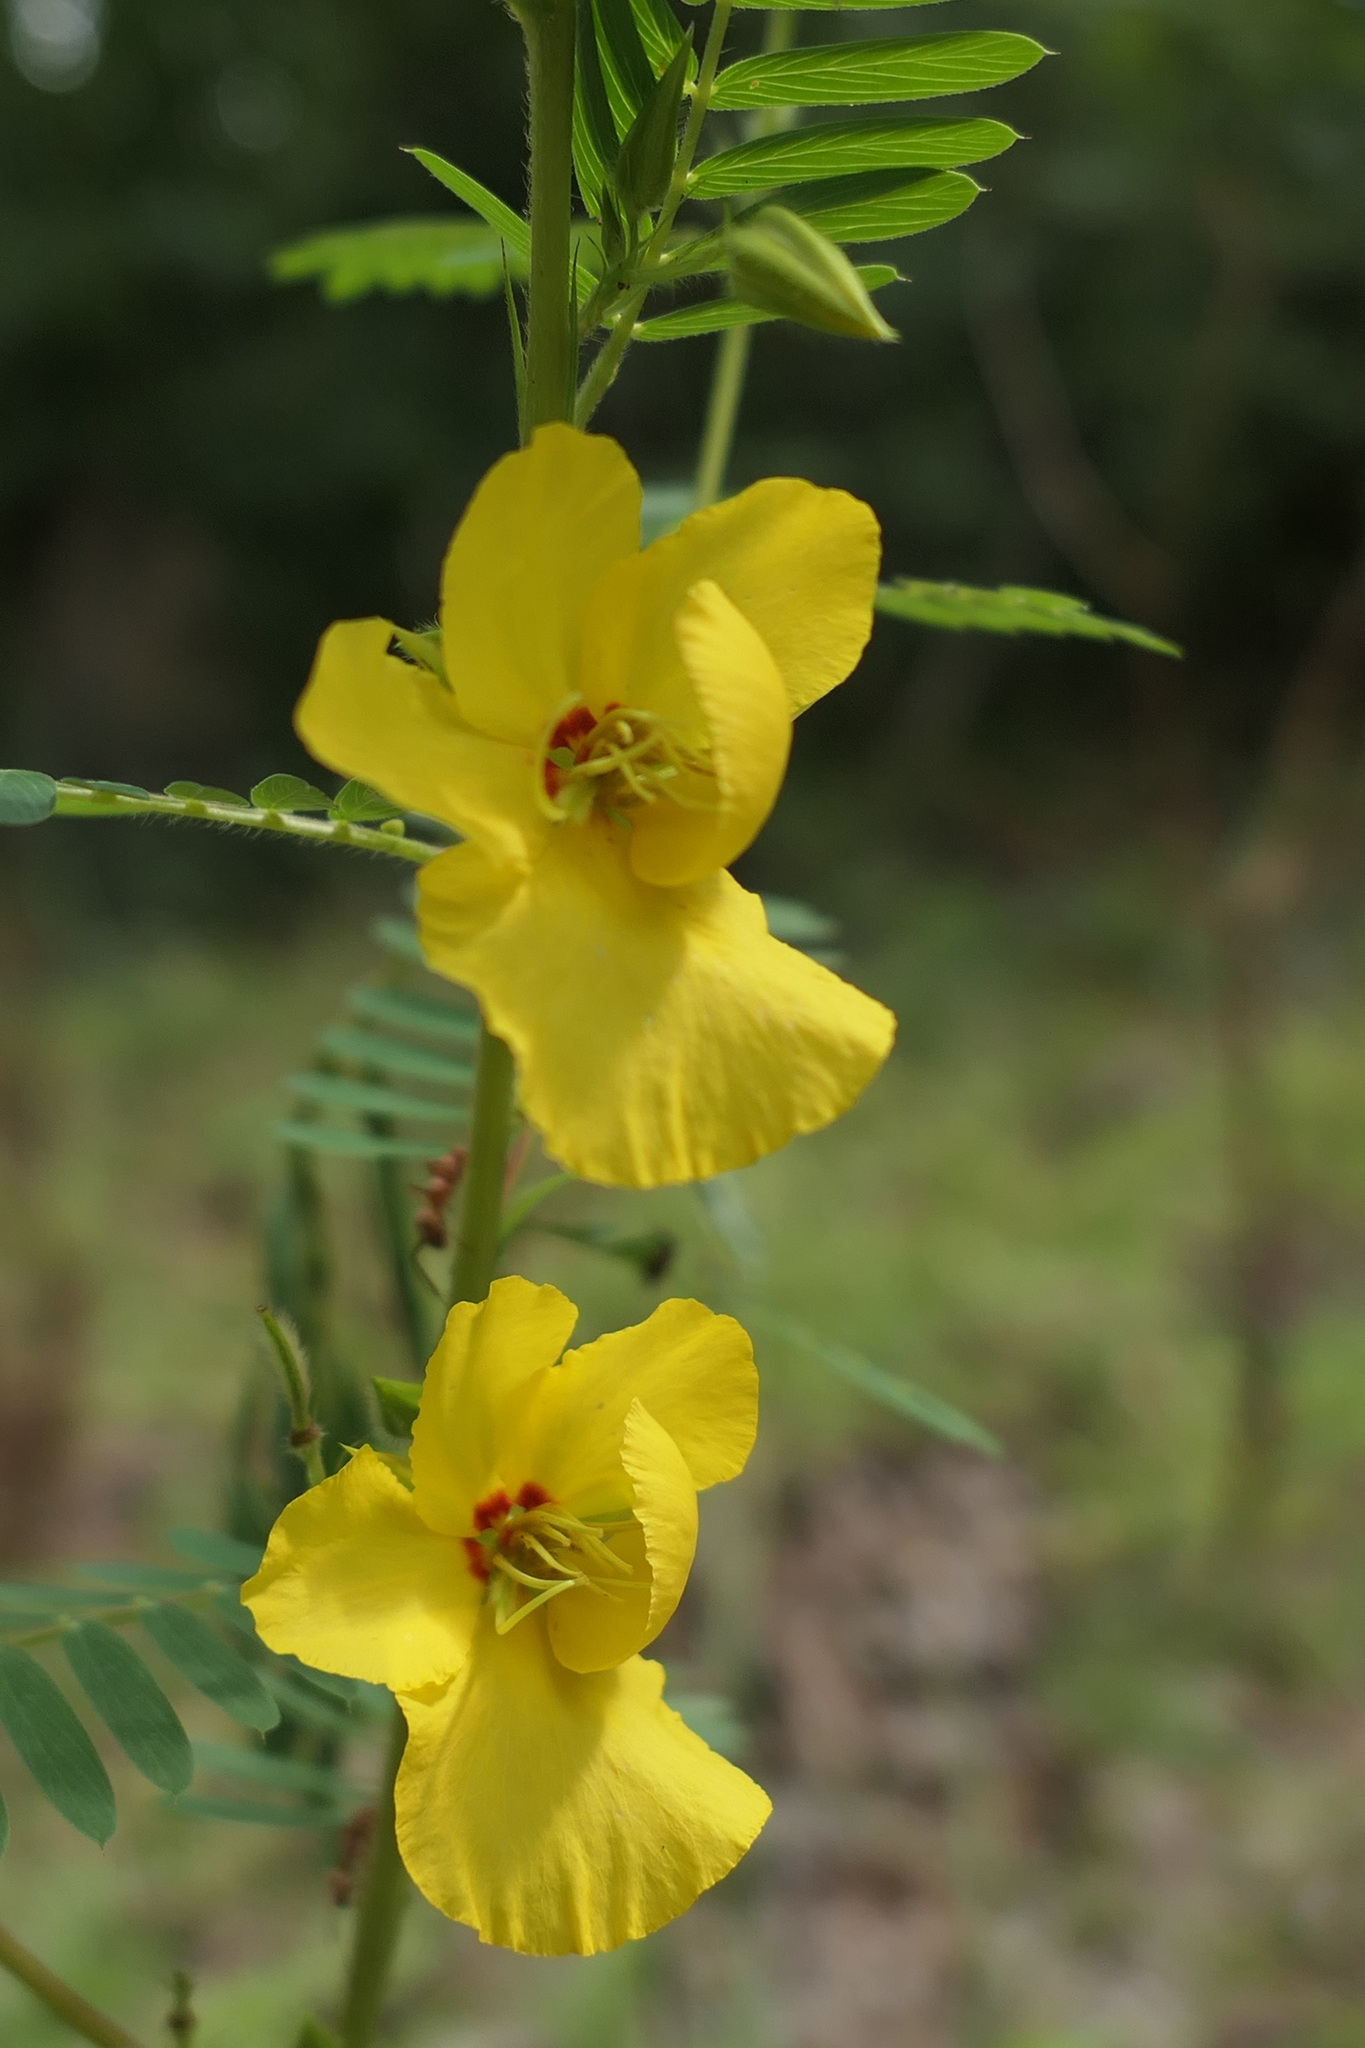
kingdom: Plantae
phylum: Tracheophyta
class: Magnoliopsida
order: Fabales
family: Fabaceae
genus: Chamaecrista
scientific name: Chamaecrista fasciculata
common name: Golden cassia
